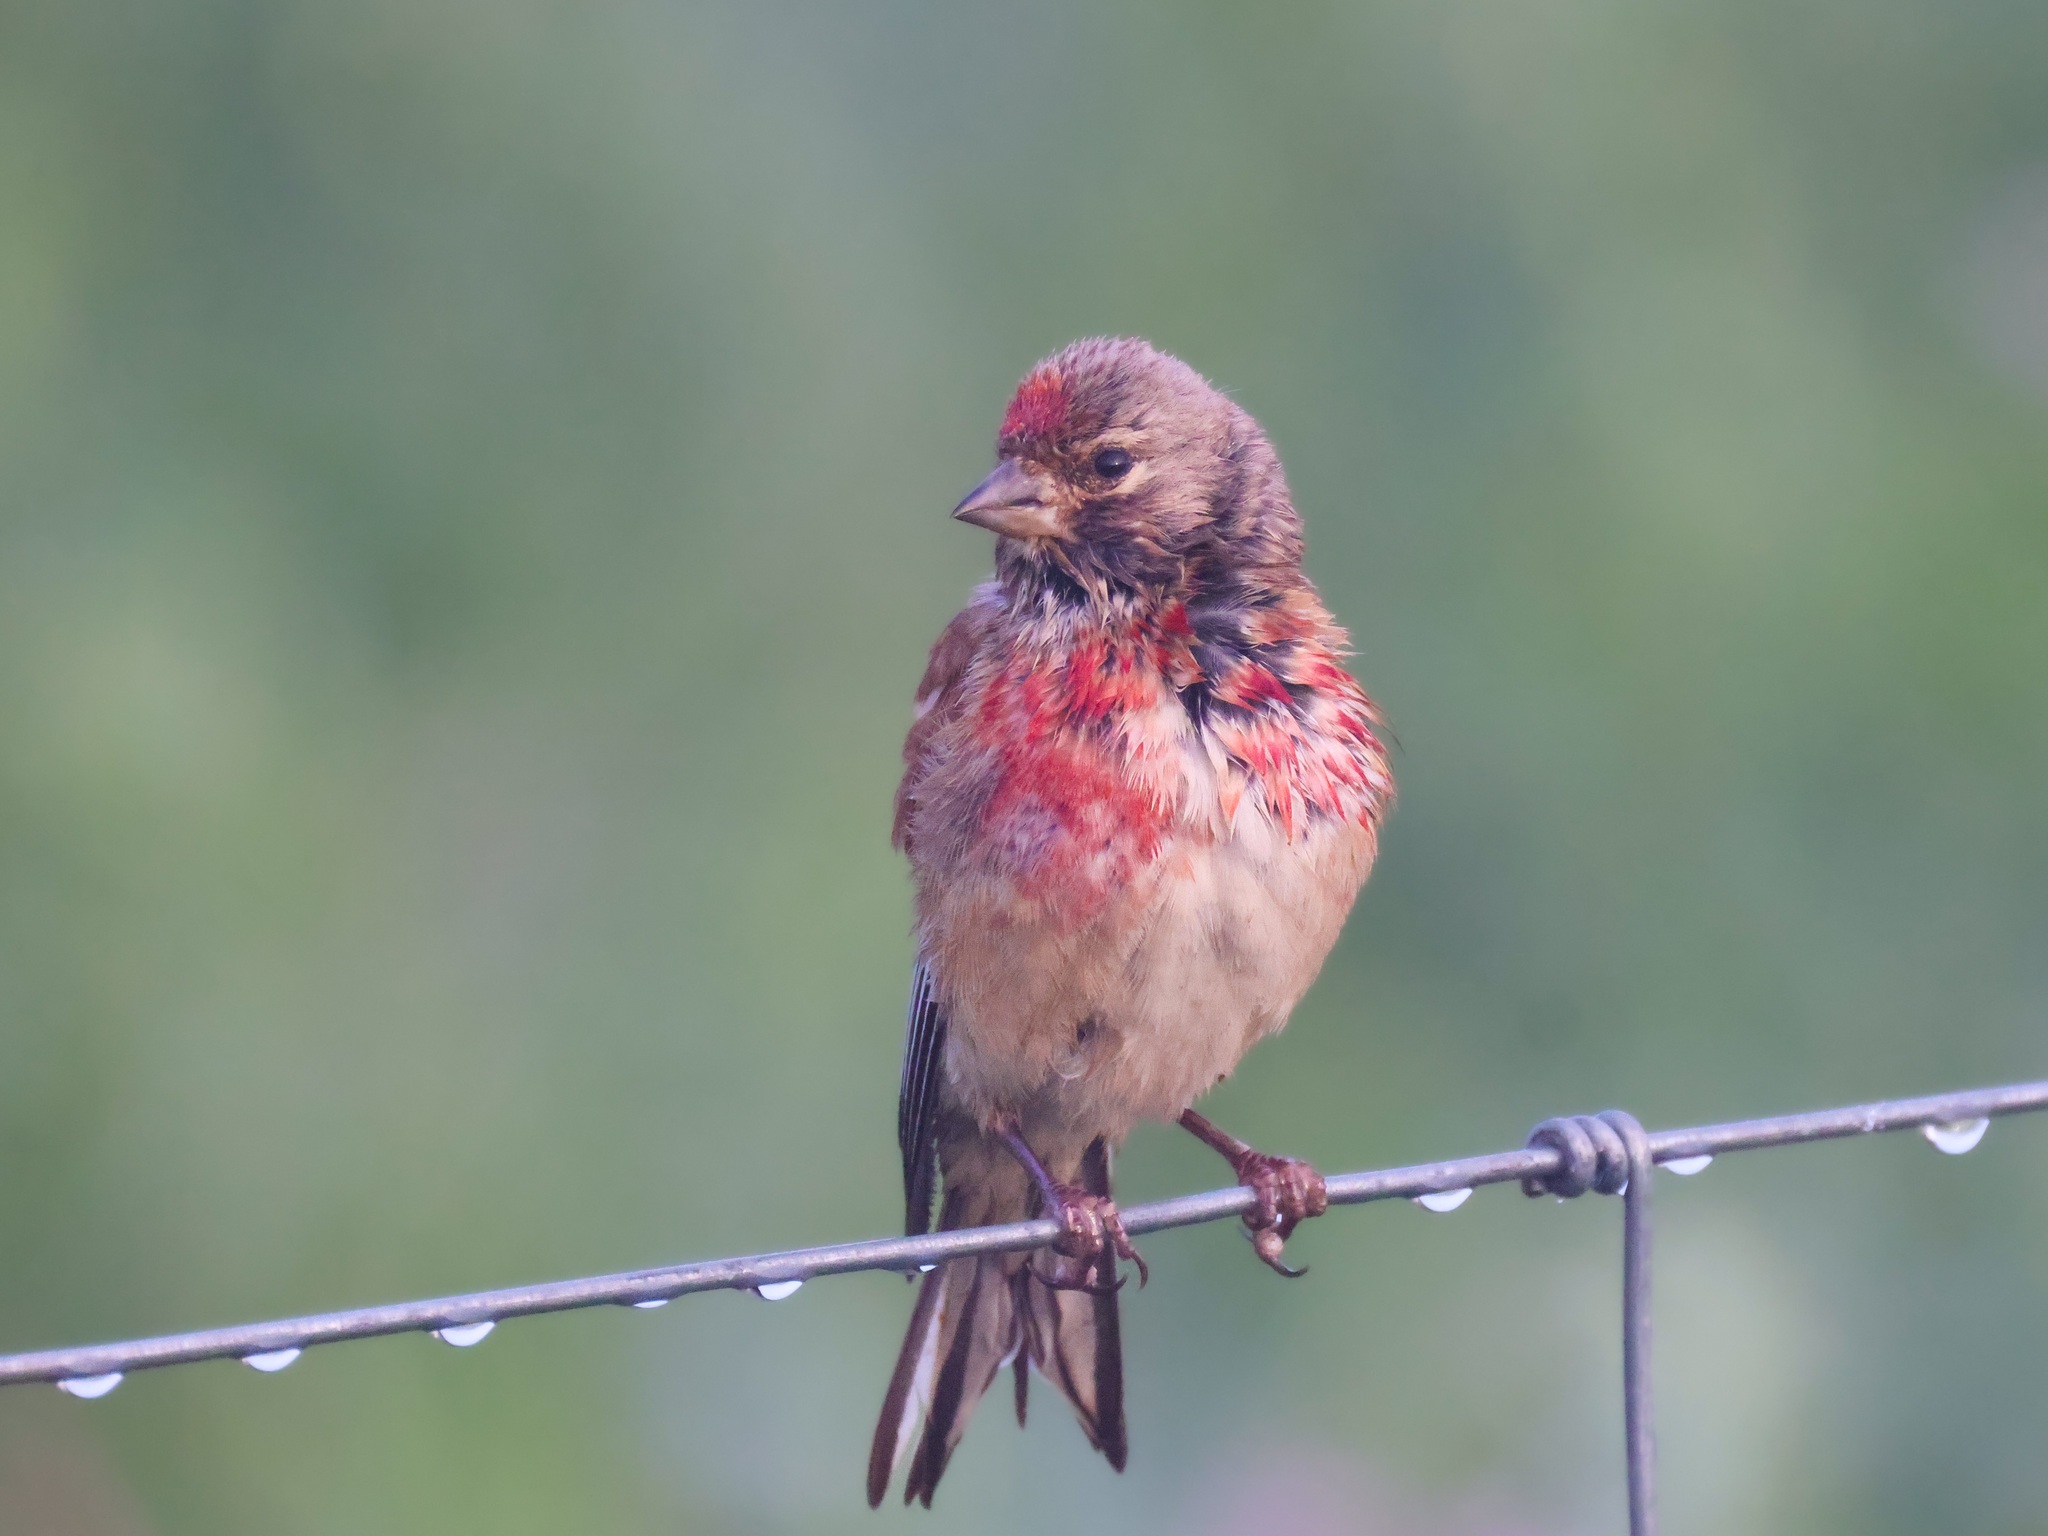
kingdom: Animalia
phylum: Chordata
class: Aves
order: Passeriformes
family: Fringillidae
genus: Linaria
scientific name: Linaria cannabina
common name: Common linnet
